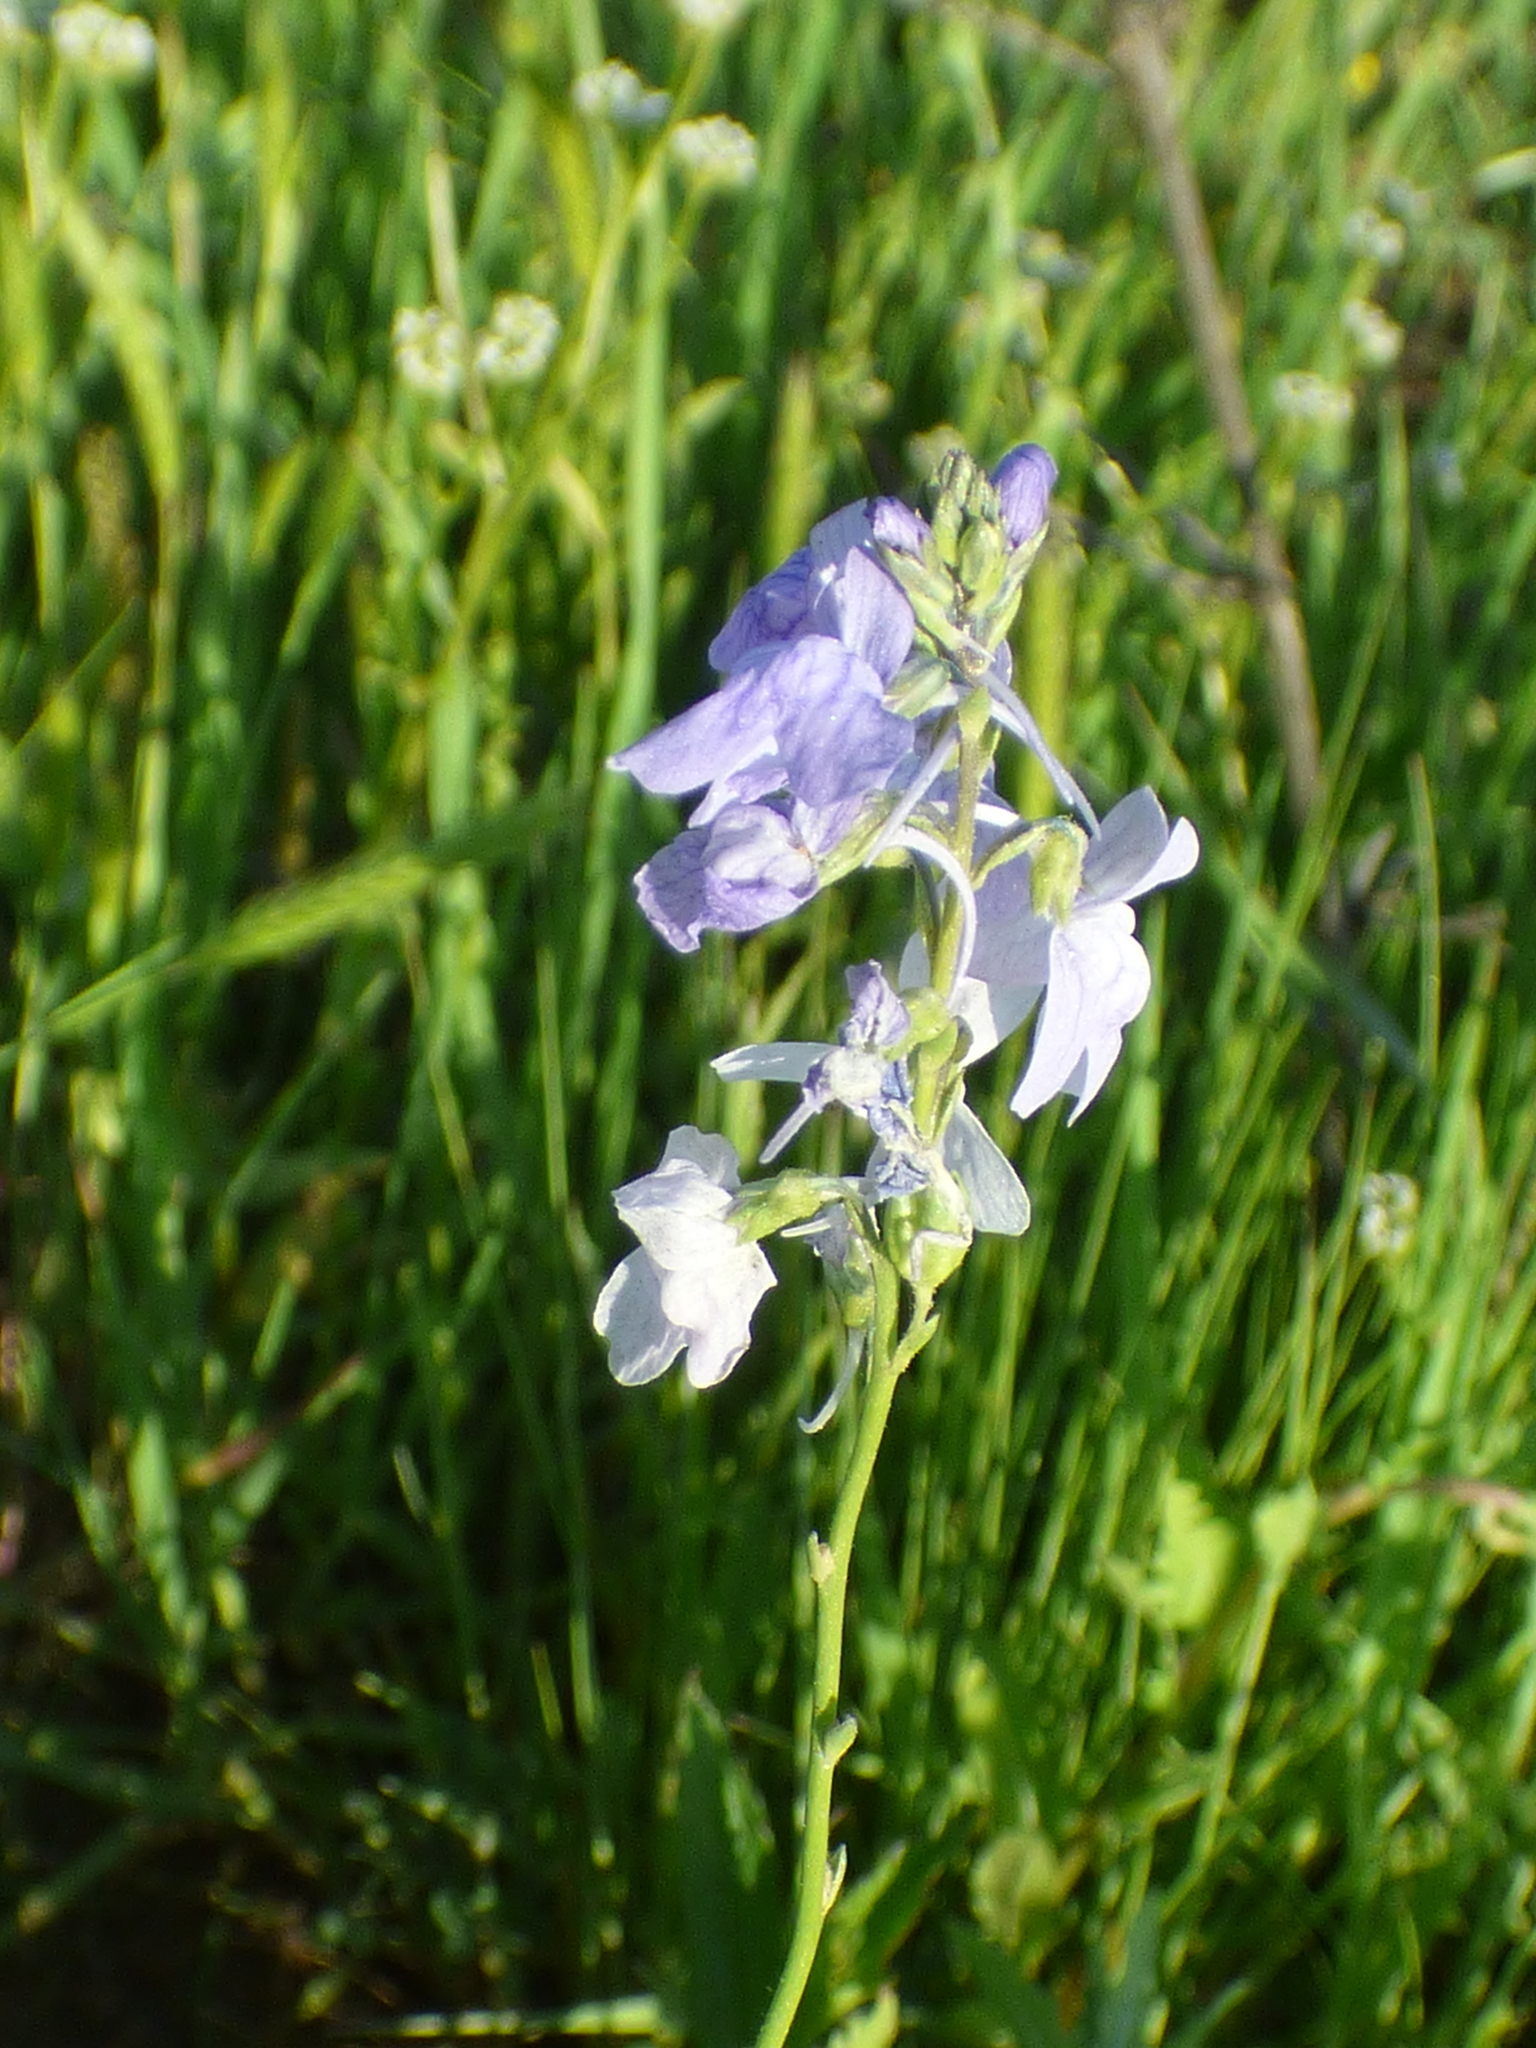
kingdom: Plantae
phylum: Tracheophyta
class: Magnoliopsida
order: Lamiales
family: Plantaginaceae
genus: Nuttallanthus
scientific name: Nuttallanthus texanus
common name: Texas toadflax
